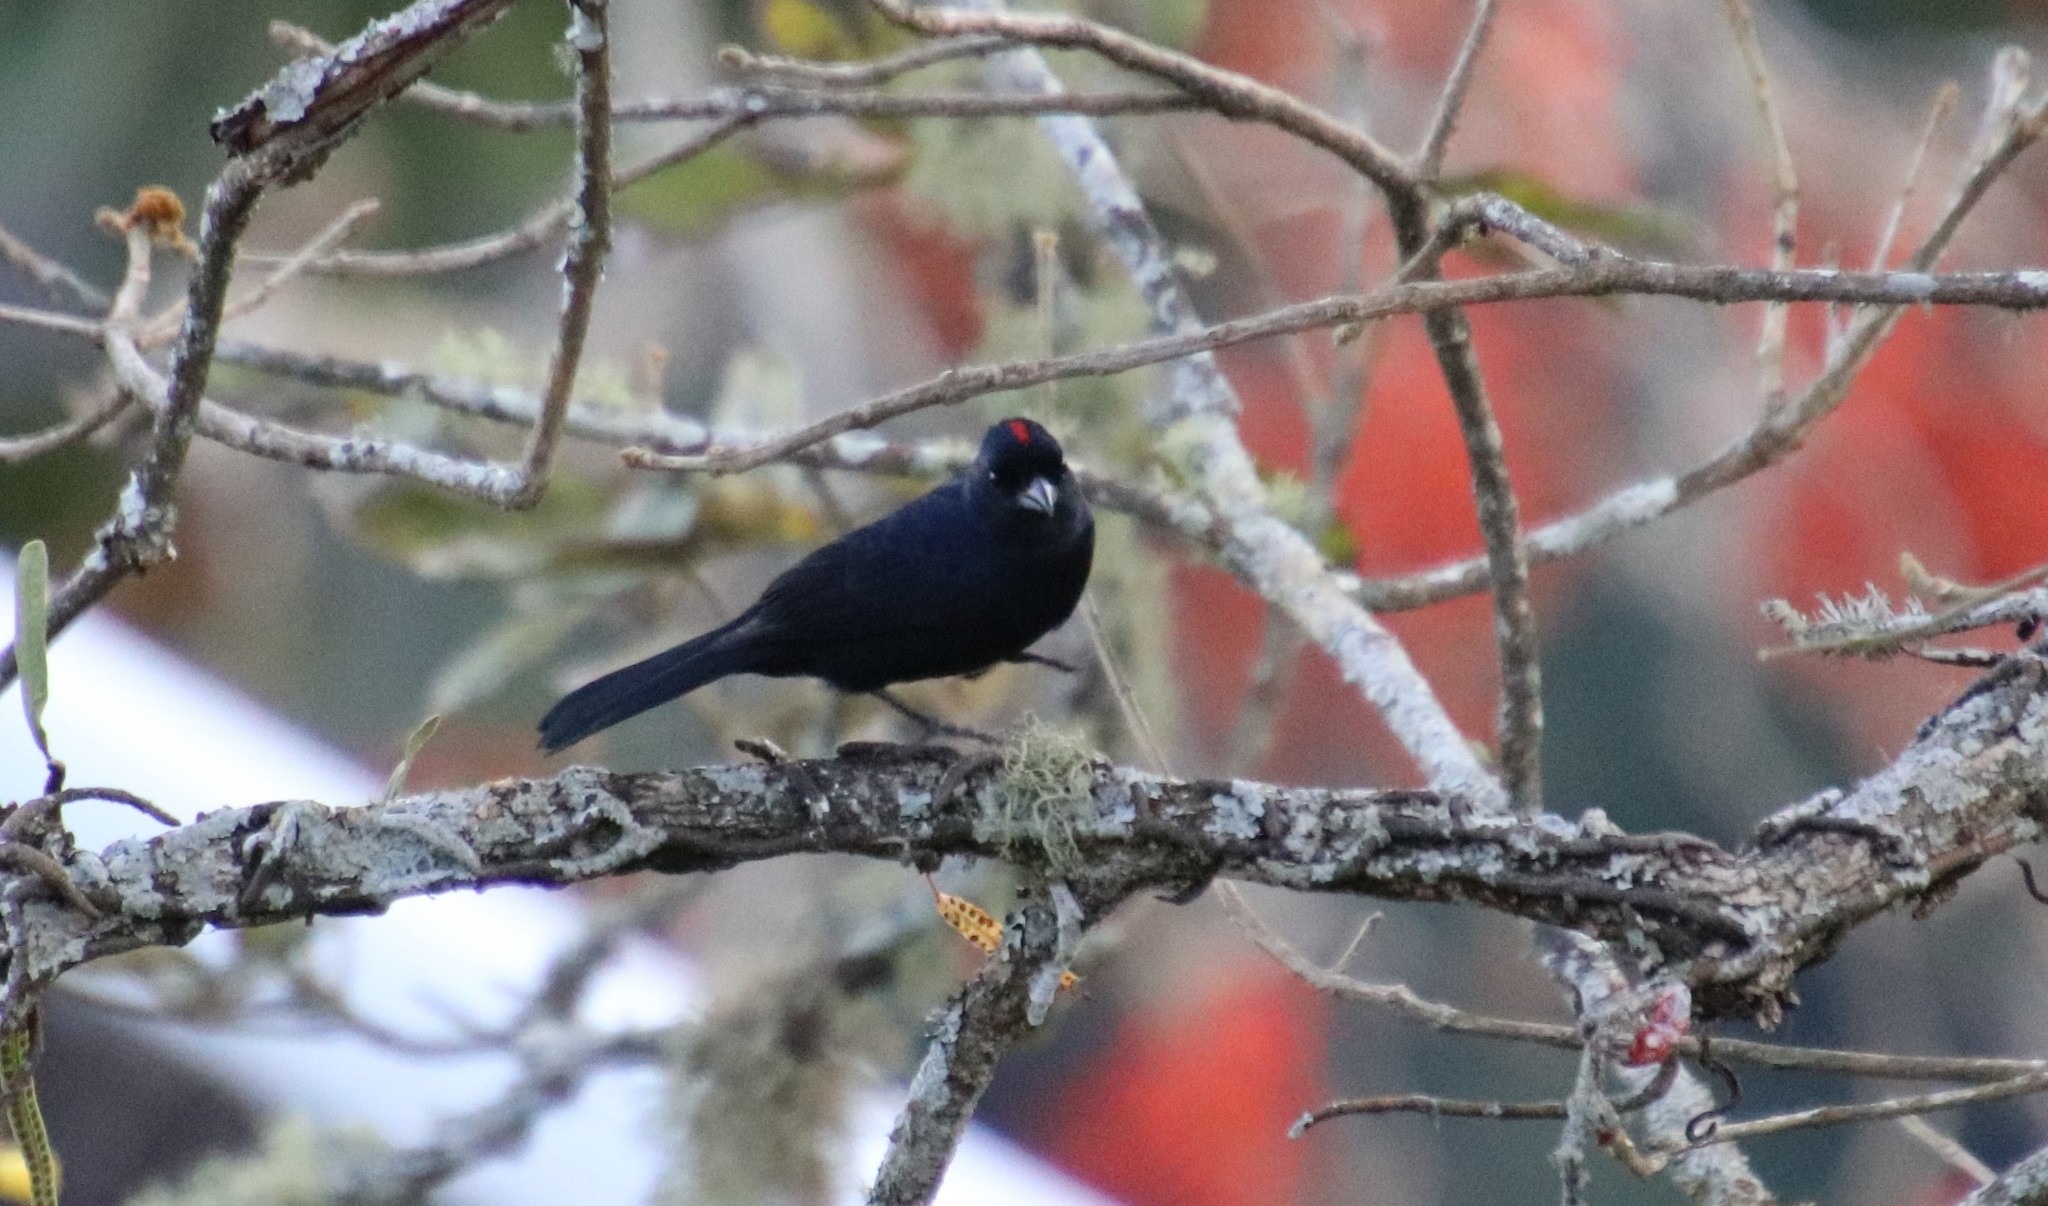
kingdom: Animalia
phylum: Chordata
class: Aves
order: Passeriformes
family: Thraupidae
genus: Tachyphonus
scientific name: Tachyphonus coronatus
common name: Ruby-crowned tanager
